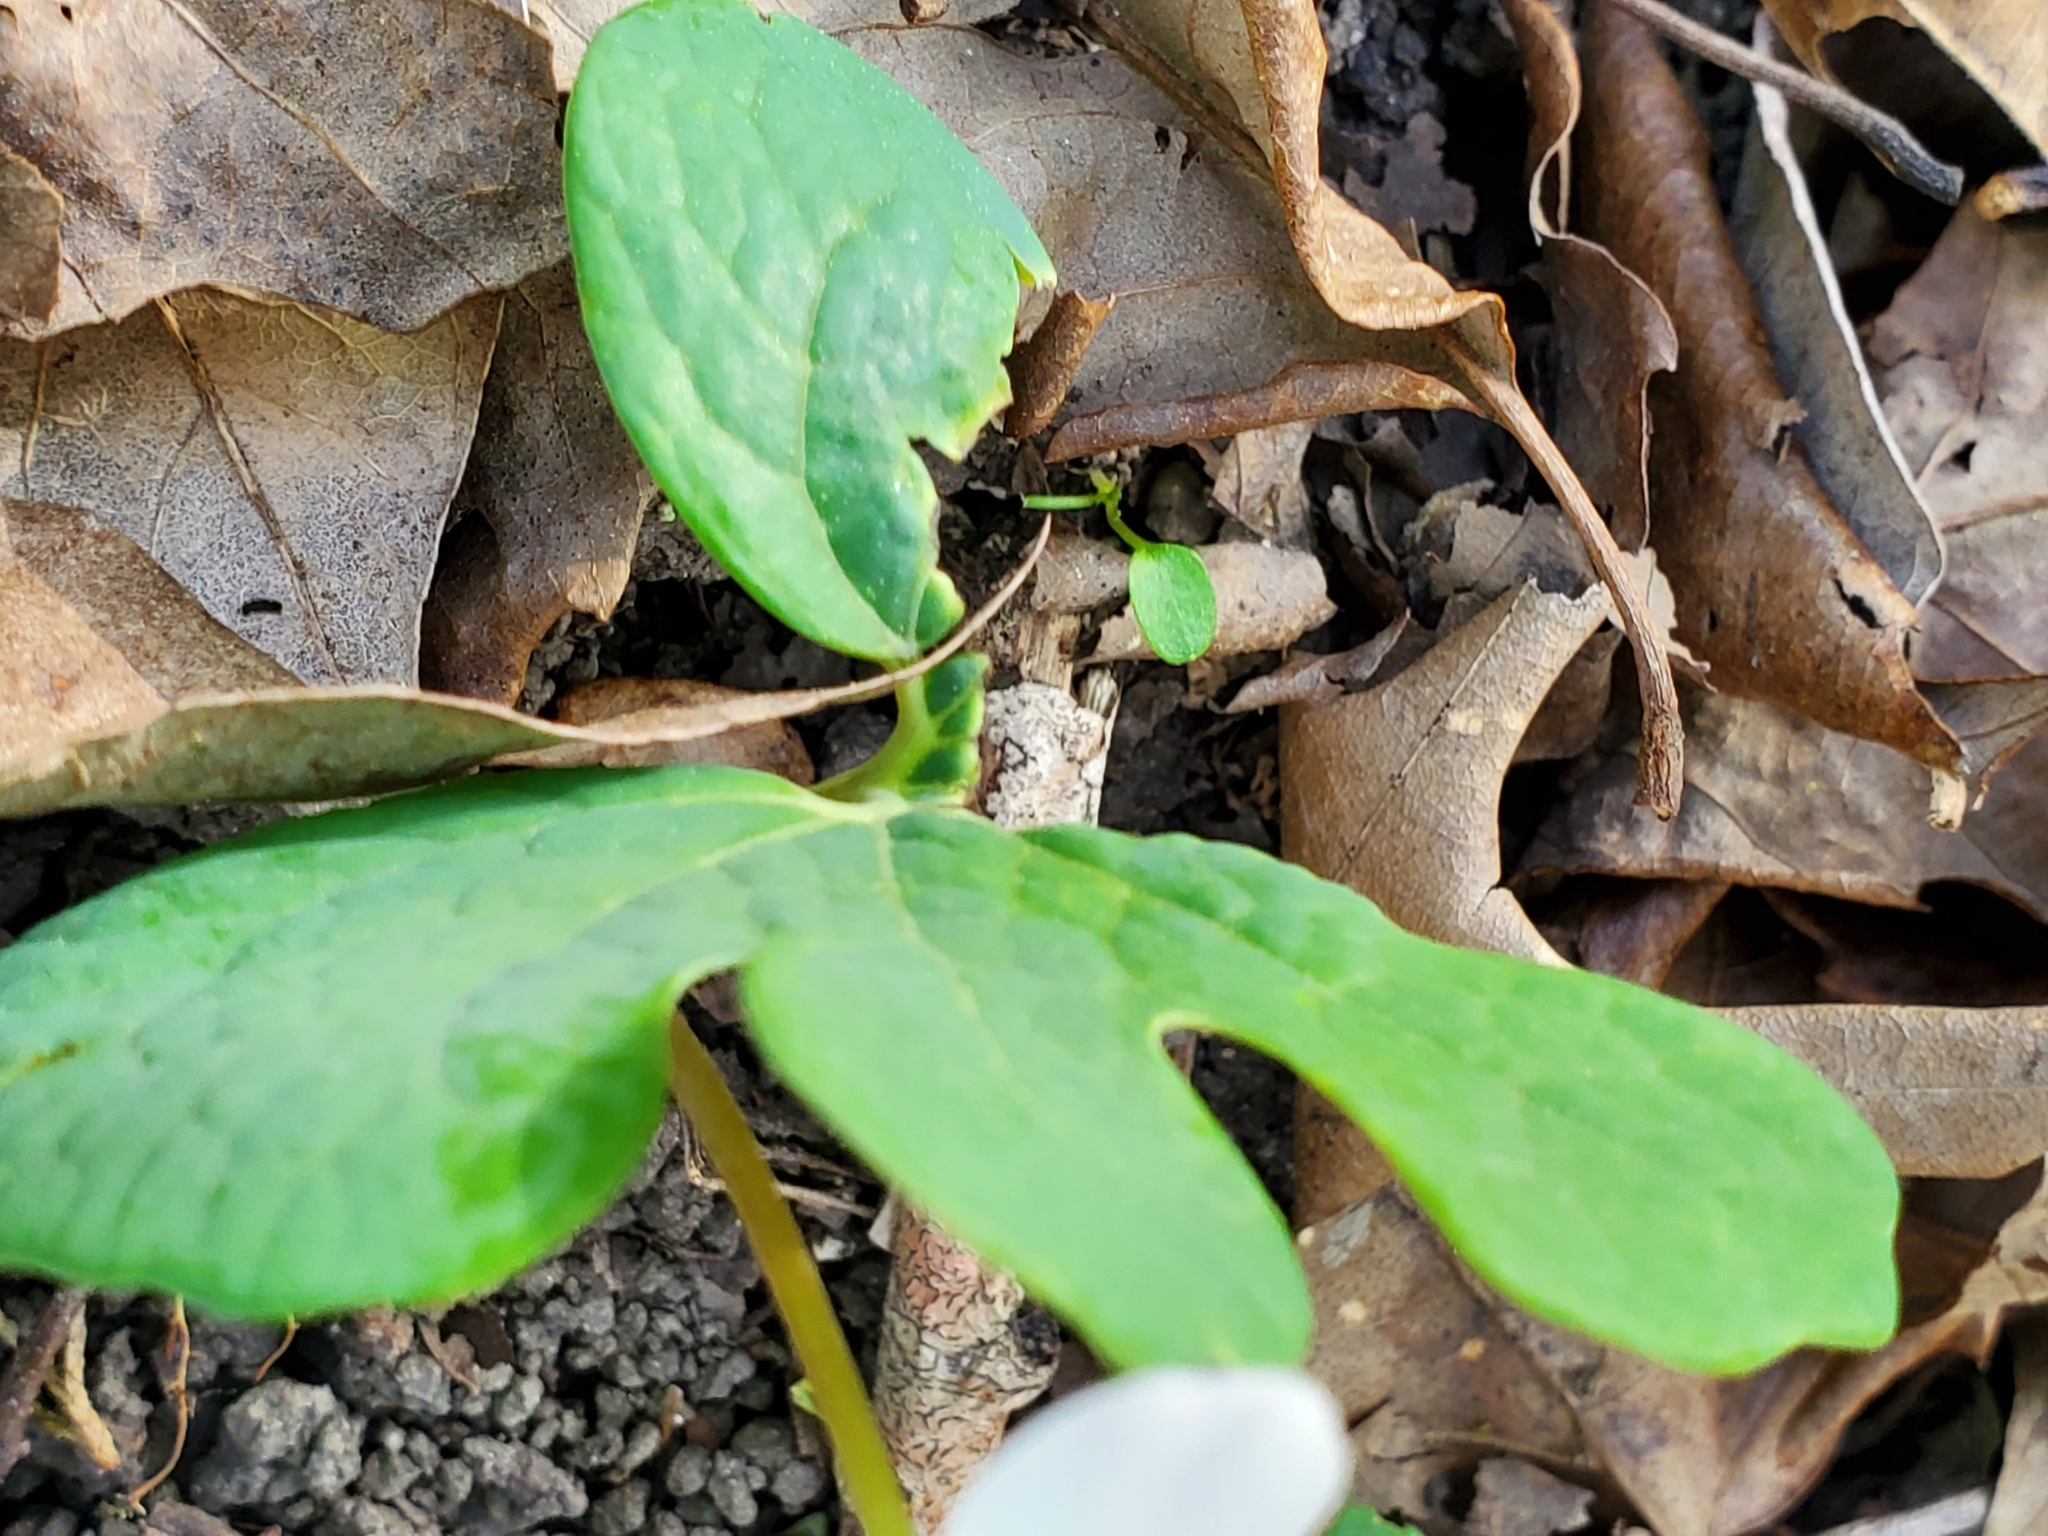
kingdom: Plantae
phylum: Tracheophyta
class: Magnoliopsida
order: Ranunculales
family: Papaveraceae
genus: Sanguinaria
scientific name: Sanguinaria canadensis
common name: Bloodroot
